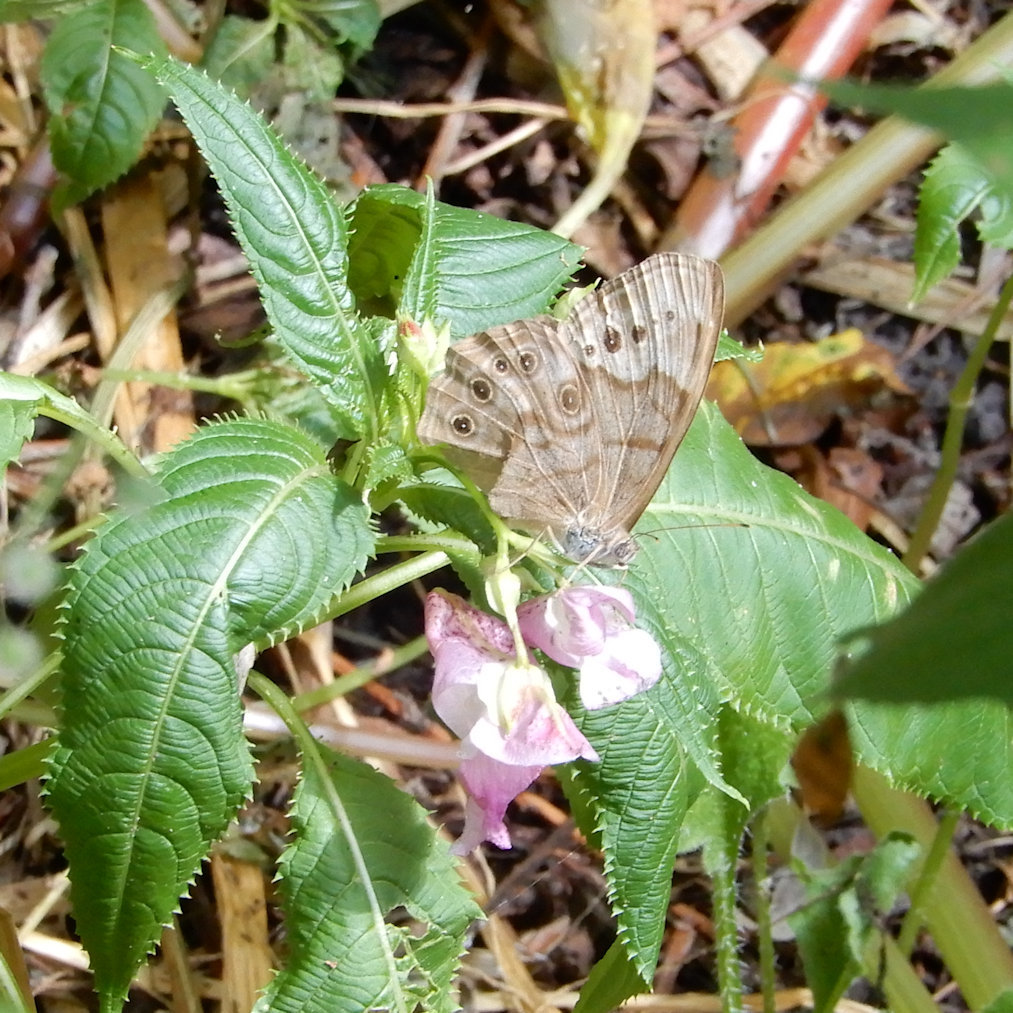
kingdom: Animalia
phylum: Arthropoda
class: Insecta
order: Lepidoptera
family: Nymphalidae
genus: Lethe
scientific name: Lethe anthedon
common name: Northern pearly-eye
